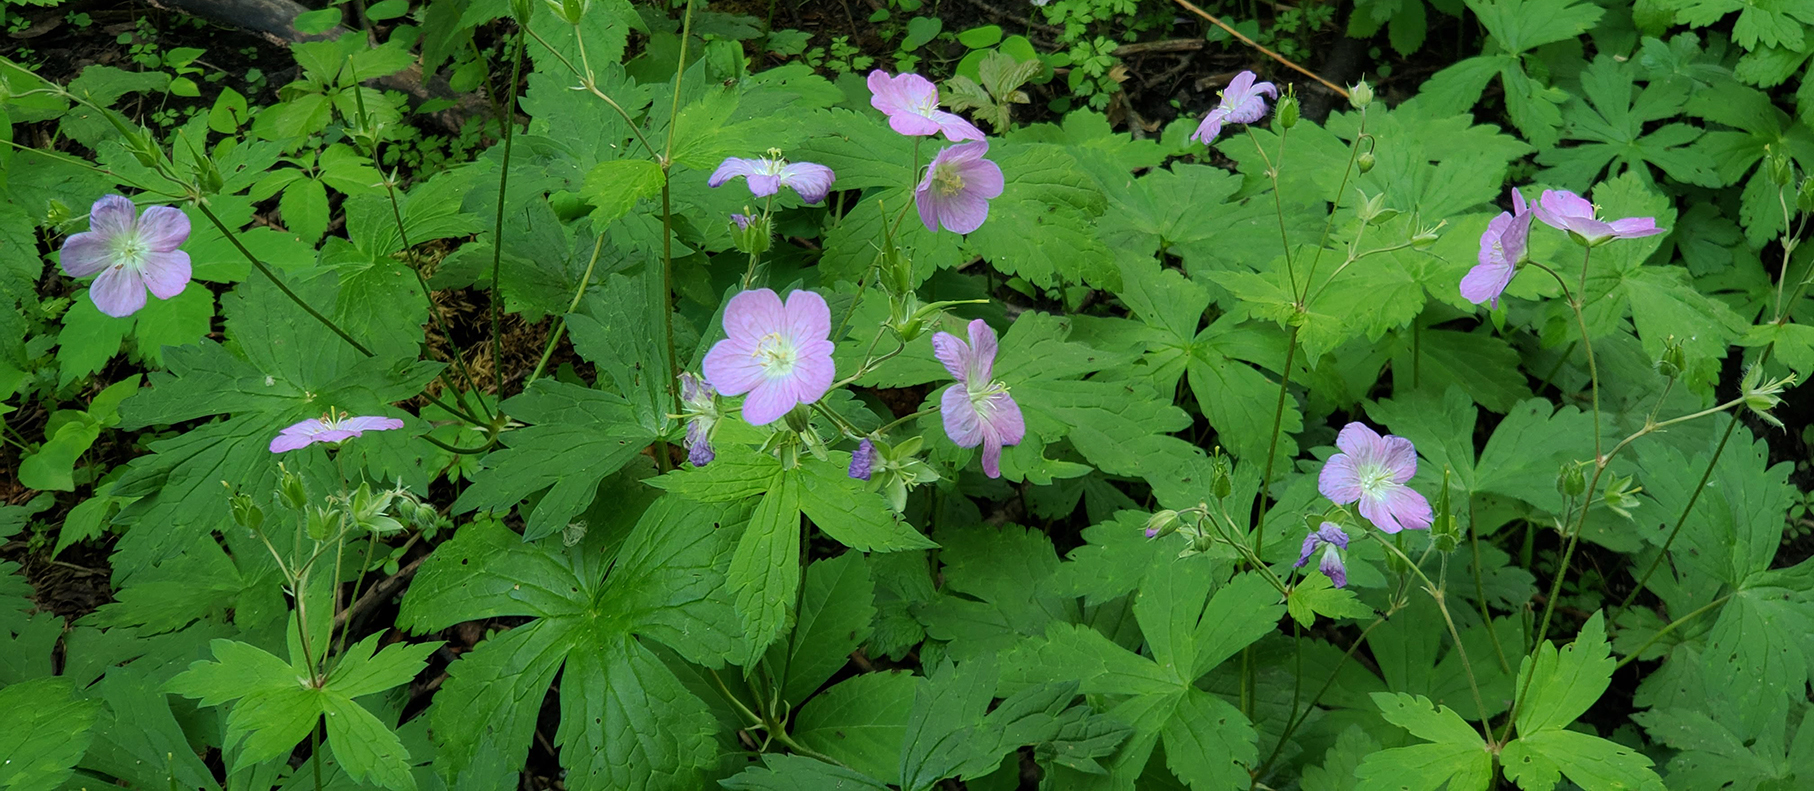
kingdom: Plantae
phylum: Tracheophyta
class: Magnoliopsida
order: Geraniales
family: Geraniaceae
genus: Geranium
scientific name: Geranium maculatum
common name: Spotted geranium
